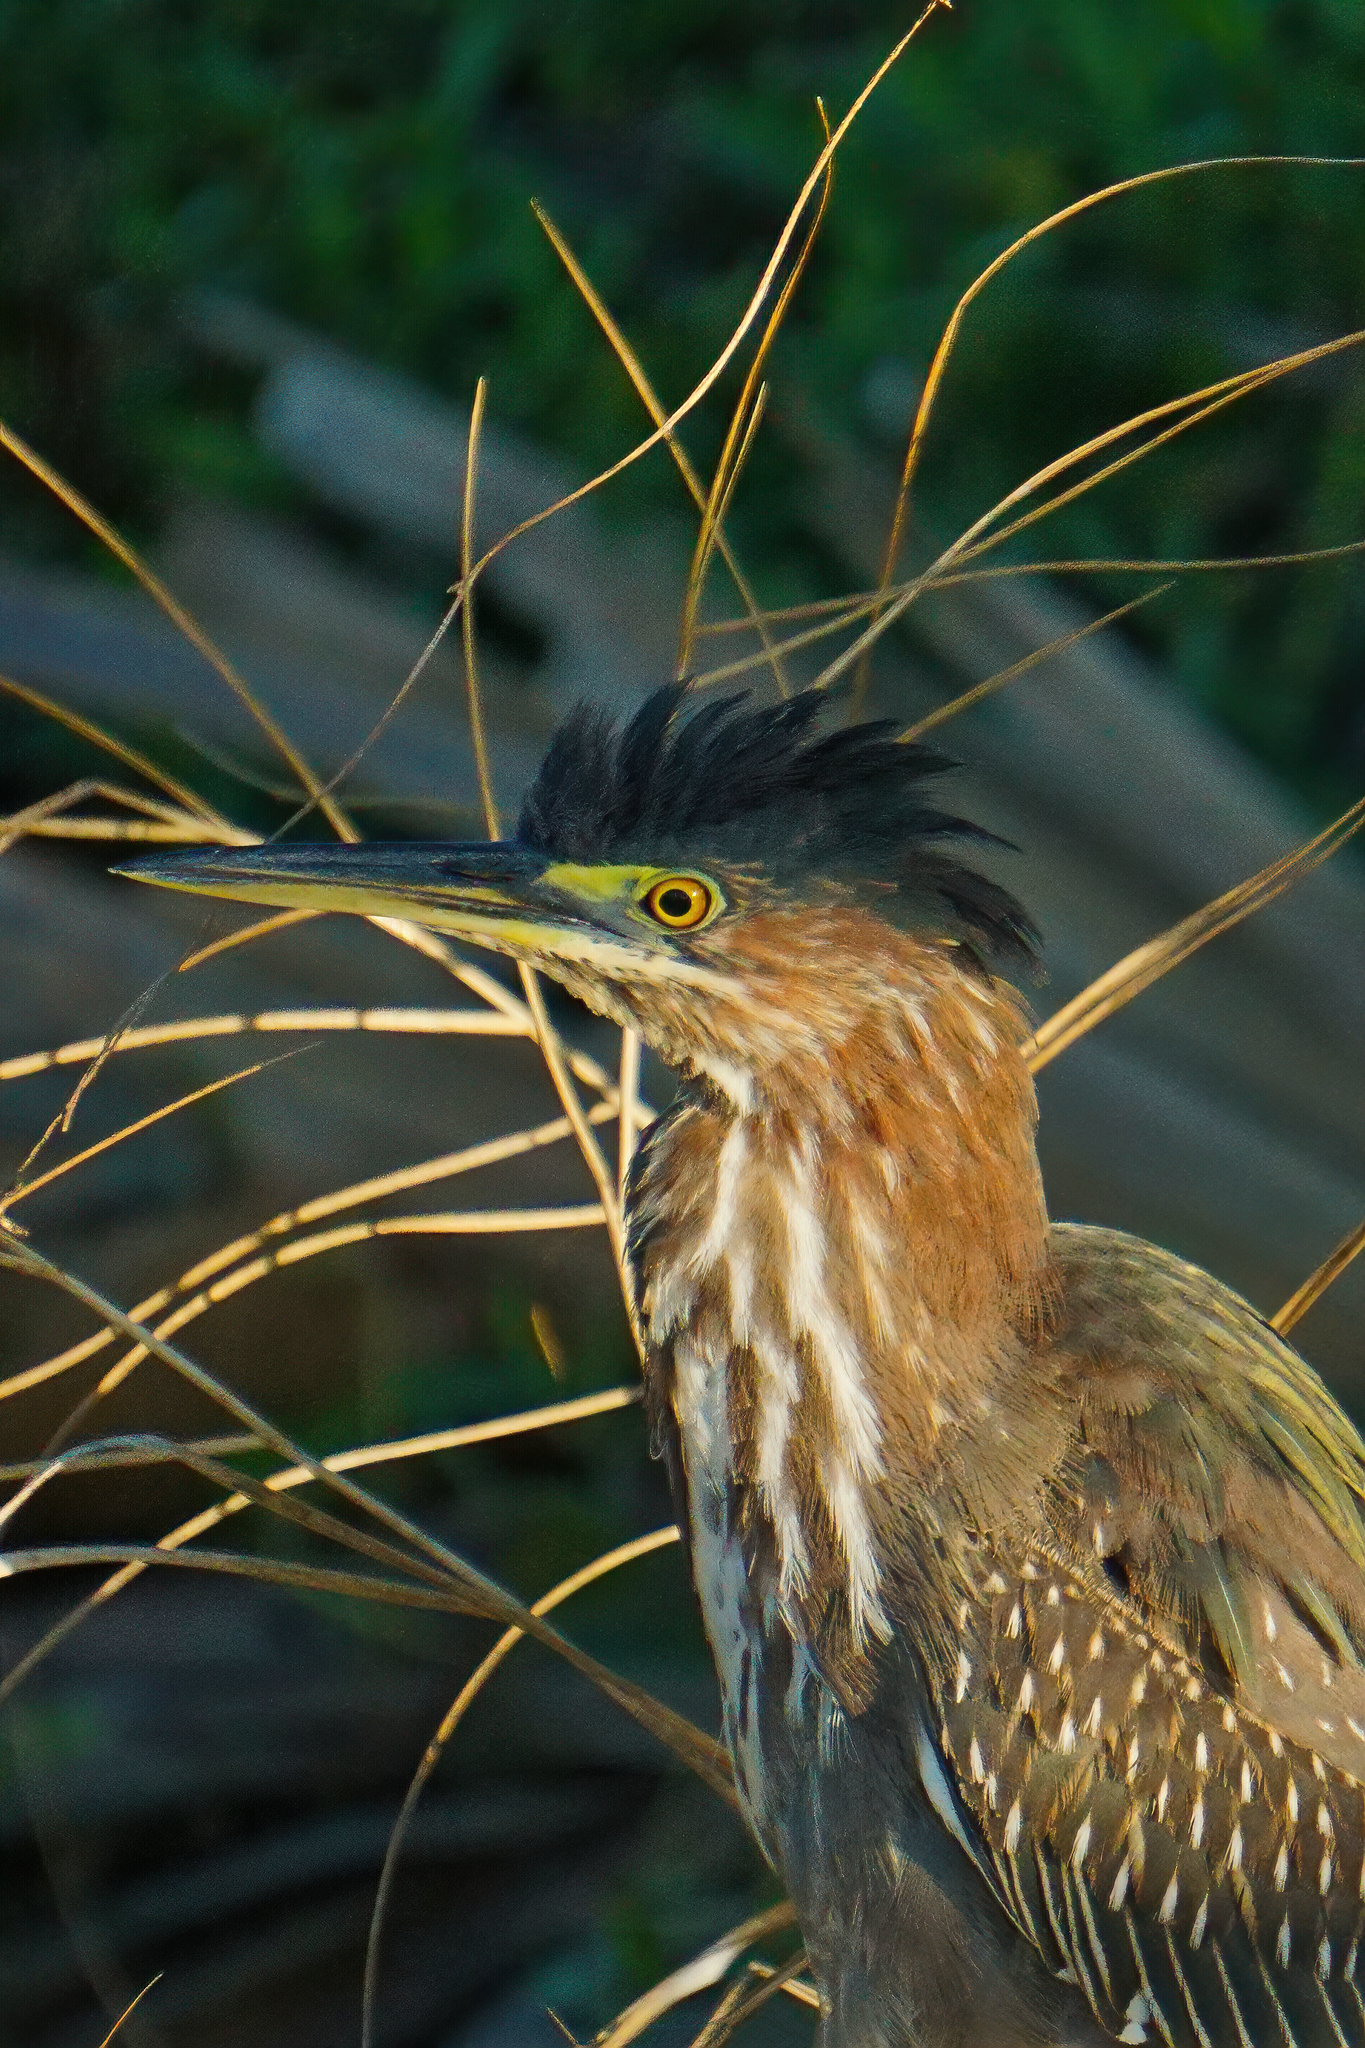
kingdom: Animalia
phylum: Chordata
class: Aves
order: Pelecaniformes
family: Ardeidae
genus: Butorides
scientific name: Butorides virescens
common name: Green heron
